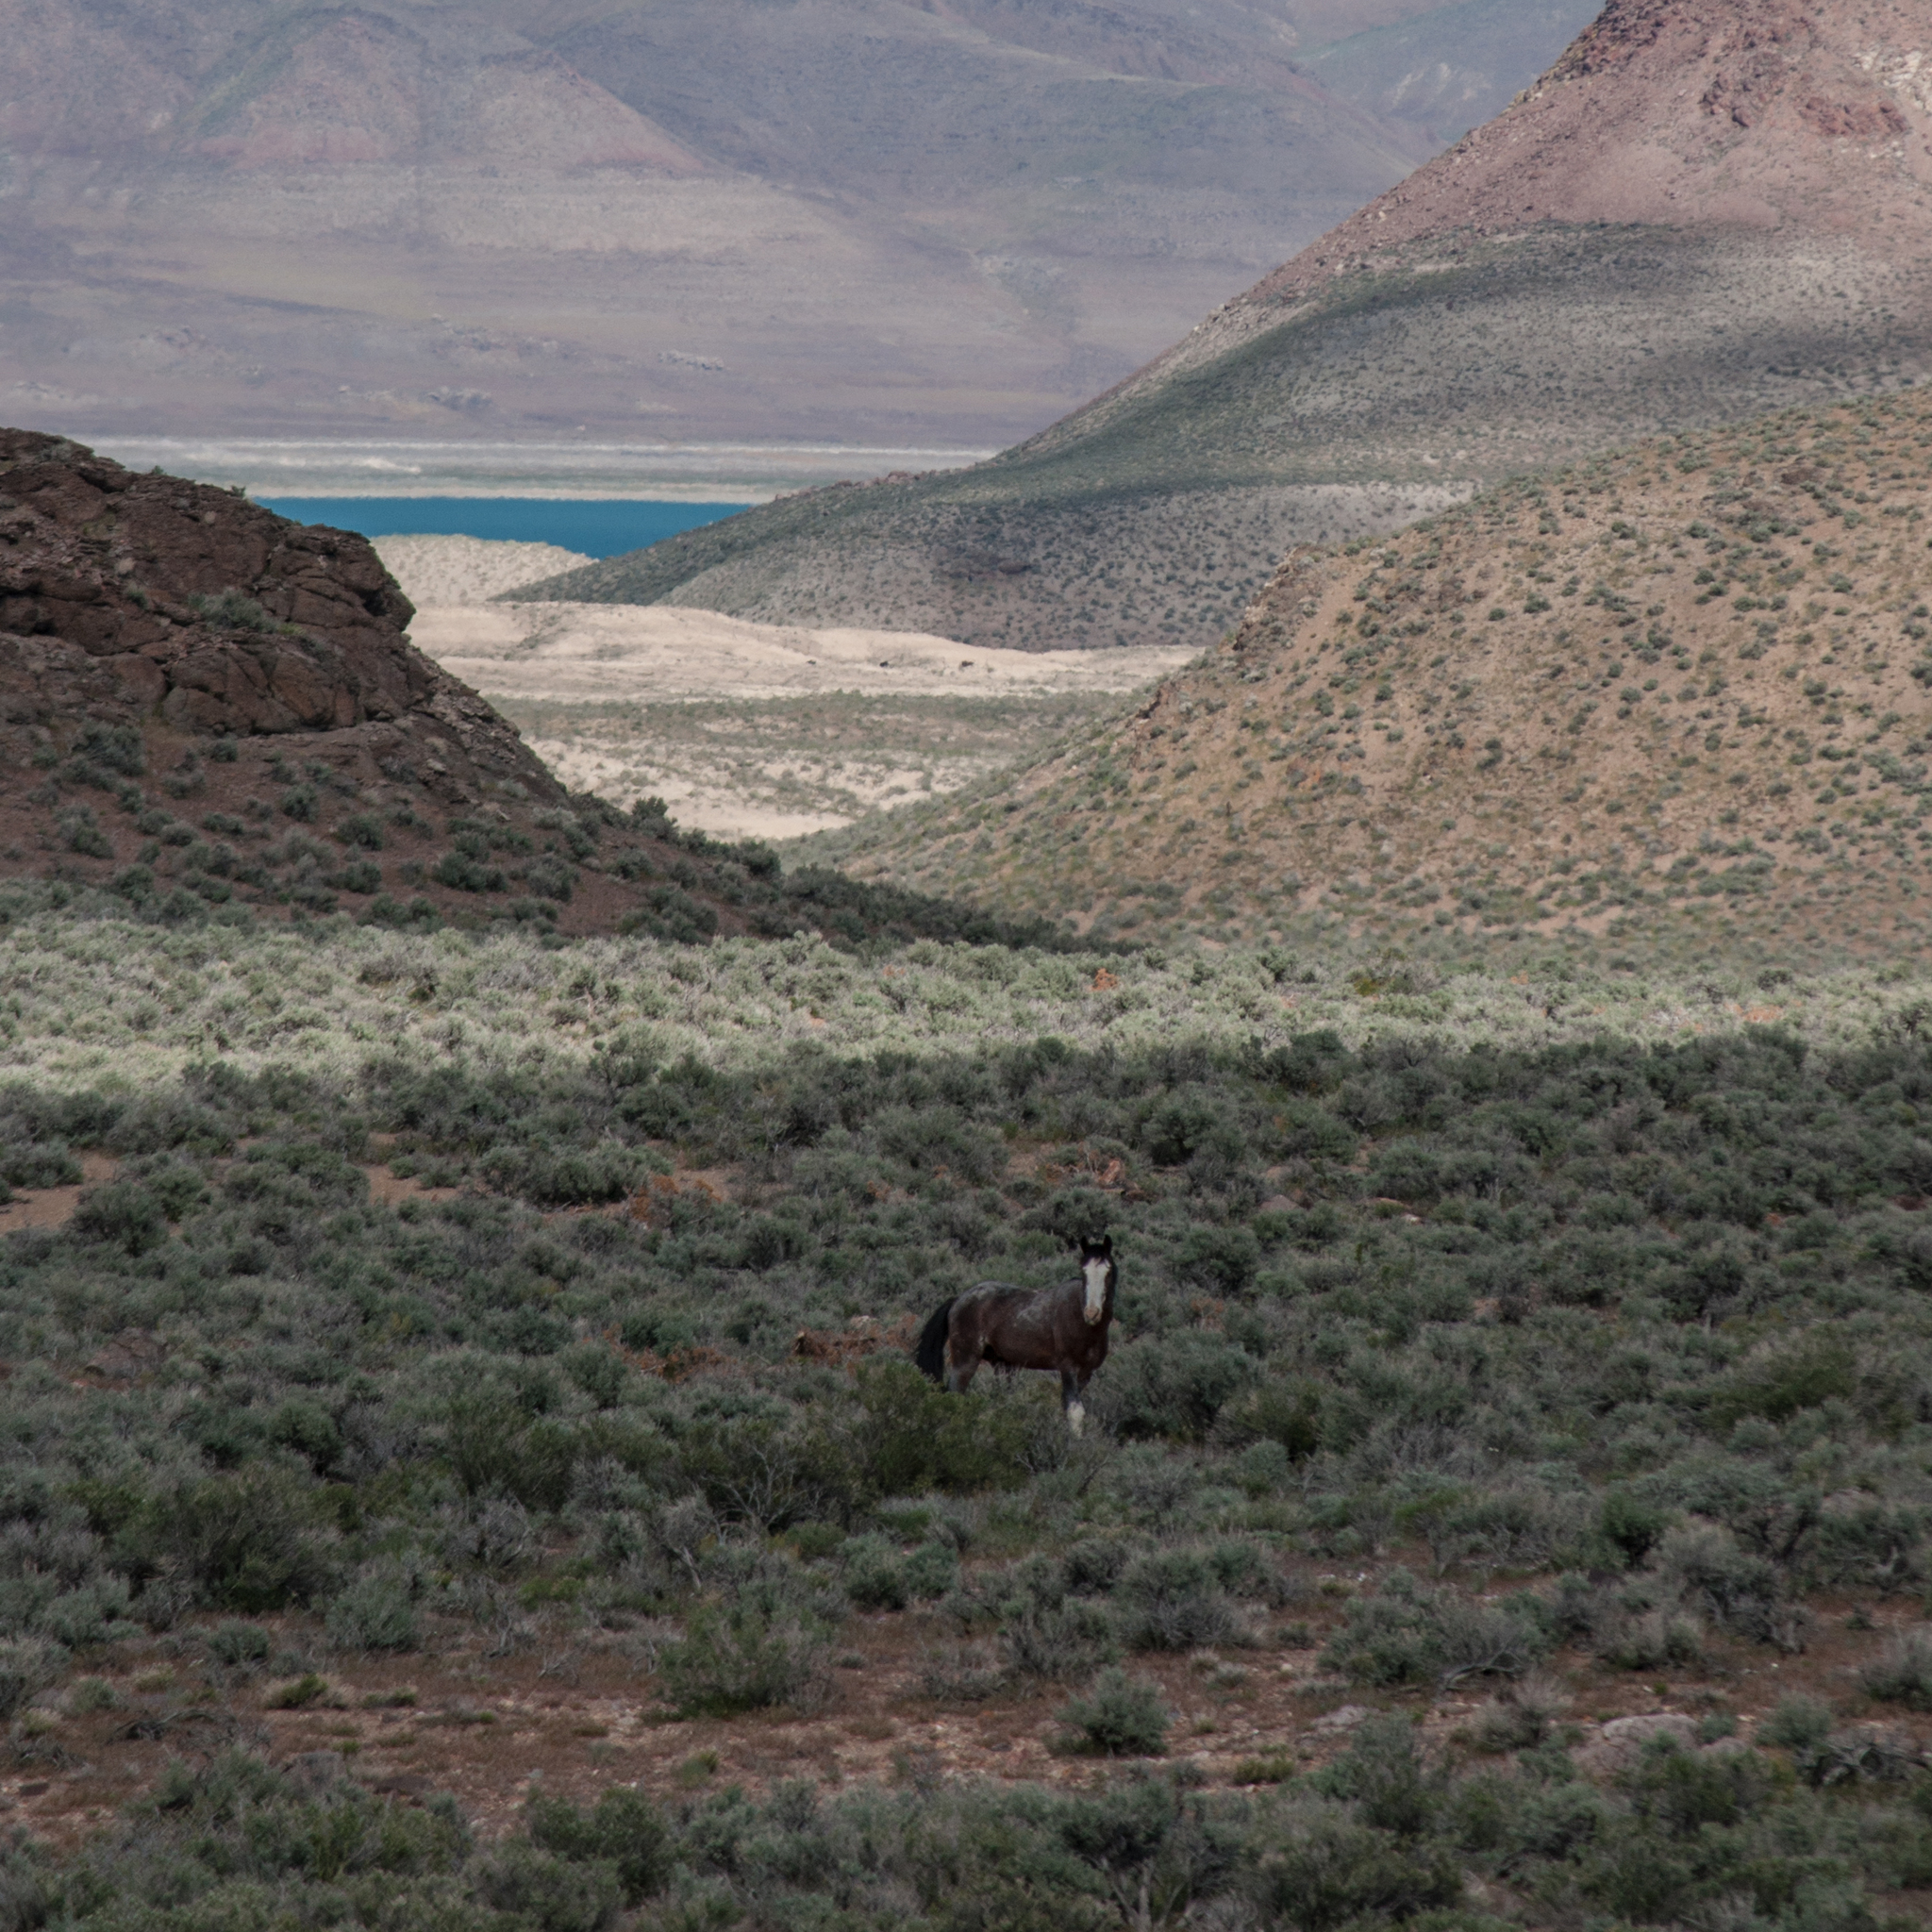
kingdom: Animalia
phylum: Chordata
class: Mammalia
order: Perissodactyla
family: Equidae
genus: Equus
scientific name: Equus caballus
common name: Horse
